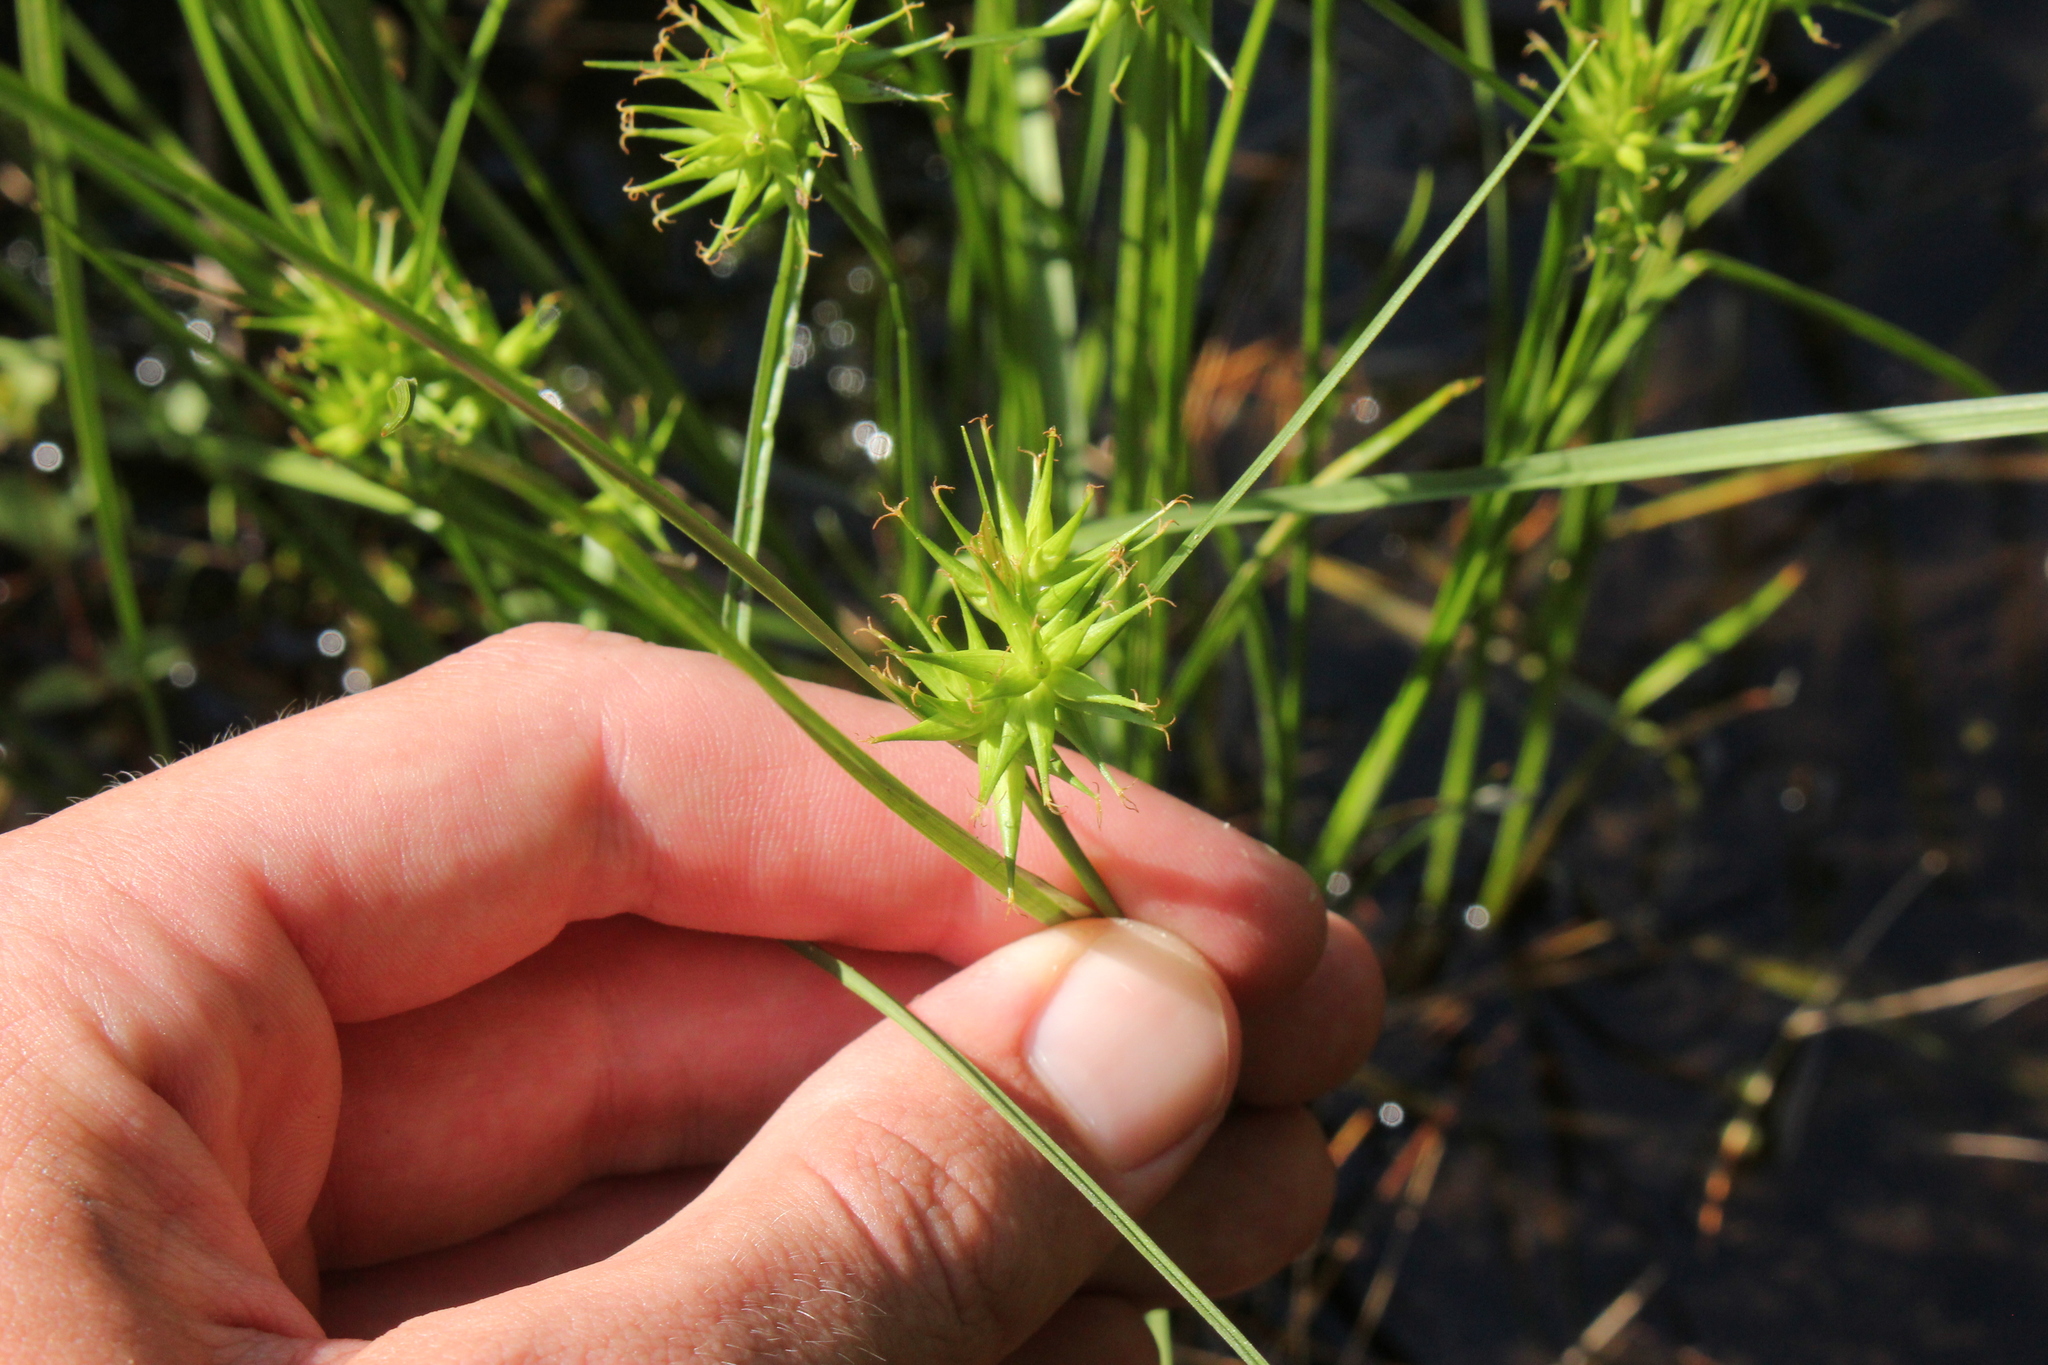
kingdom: Plantae
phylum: Tracheophyta
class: Liliopsida
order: Poales
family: Cyperaceae
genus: Carex
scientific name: Carex michauxiana
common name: Michaux's sedge
